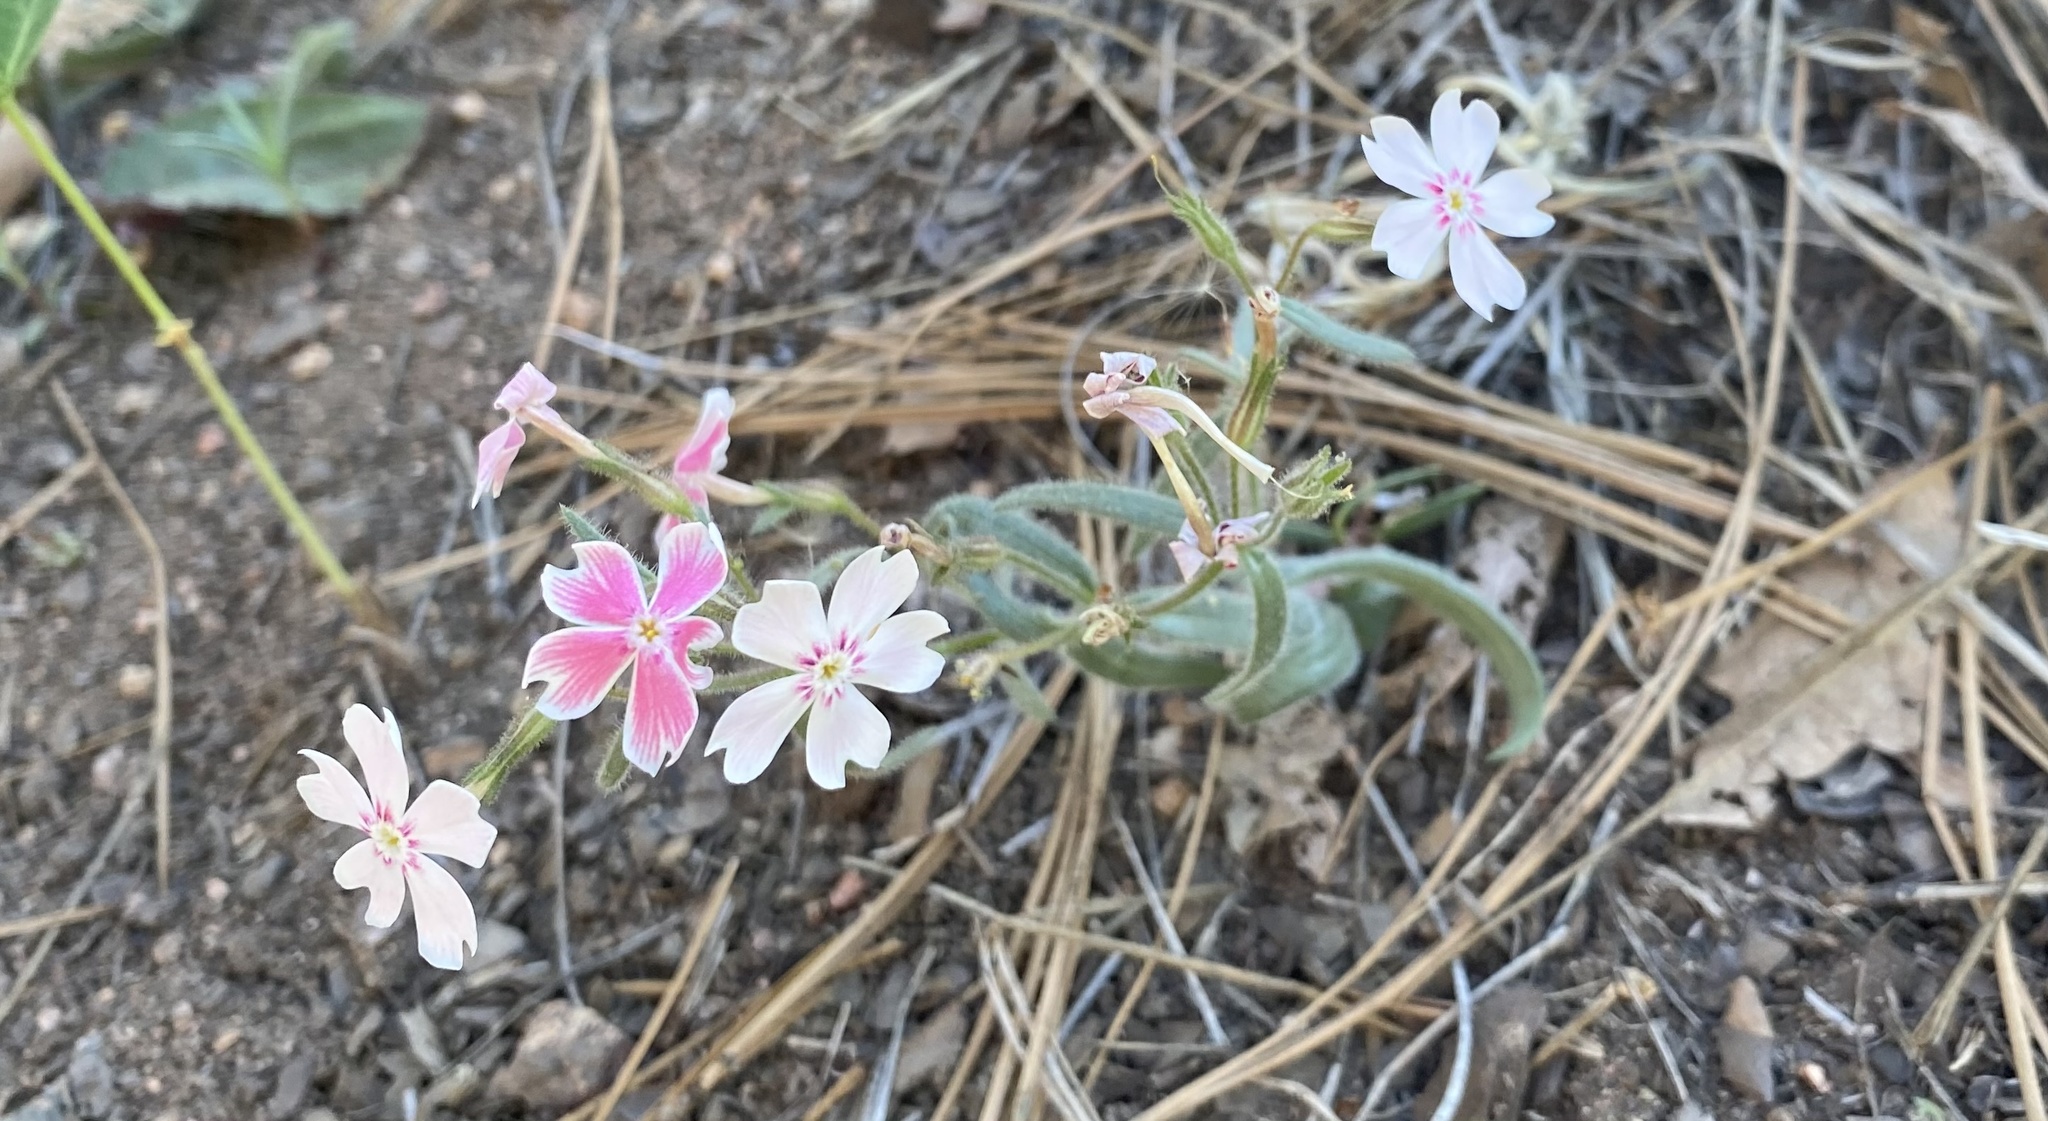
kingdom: Plantae
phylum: Tracheophyta
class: Magnoliopsida
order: Ericales
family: Polemoniaceae
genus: Phlox
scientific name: Phlox amabilis
